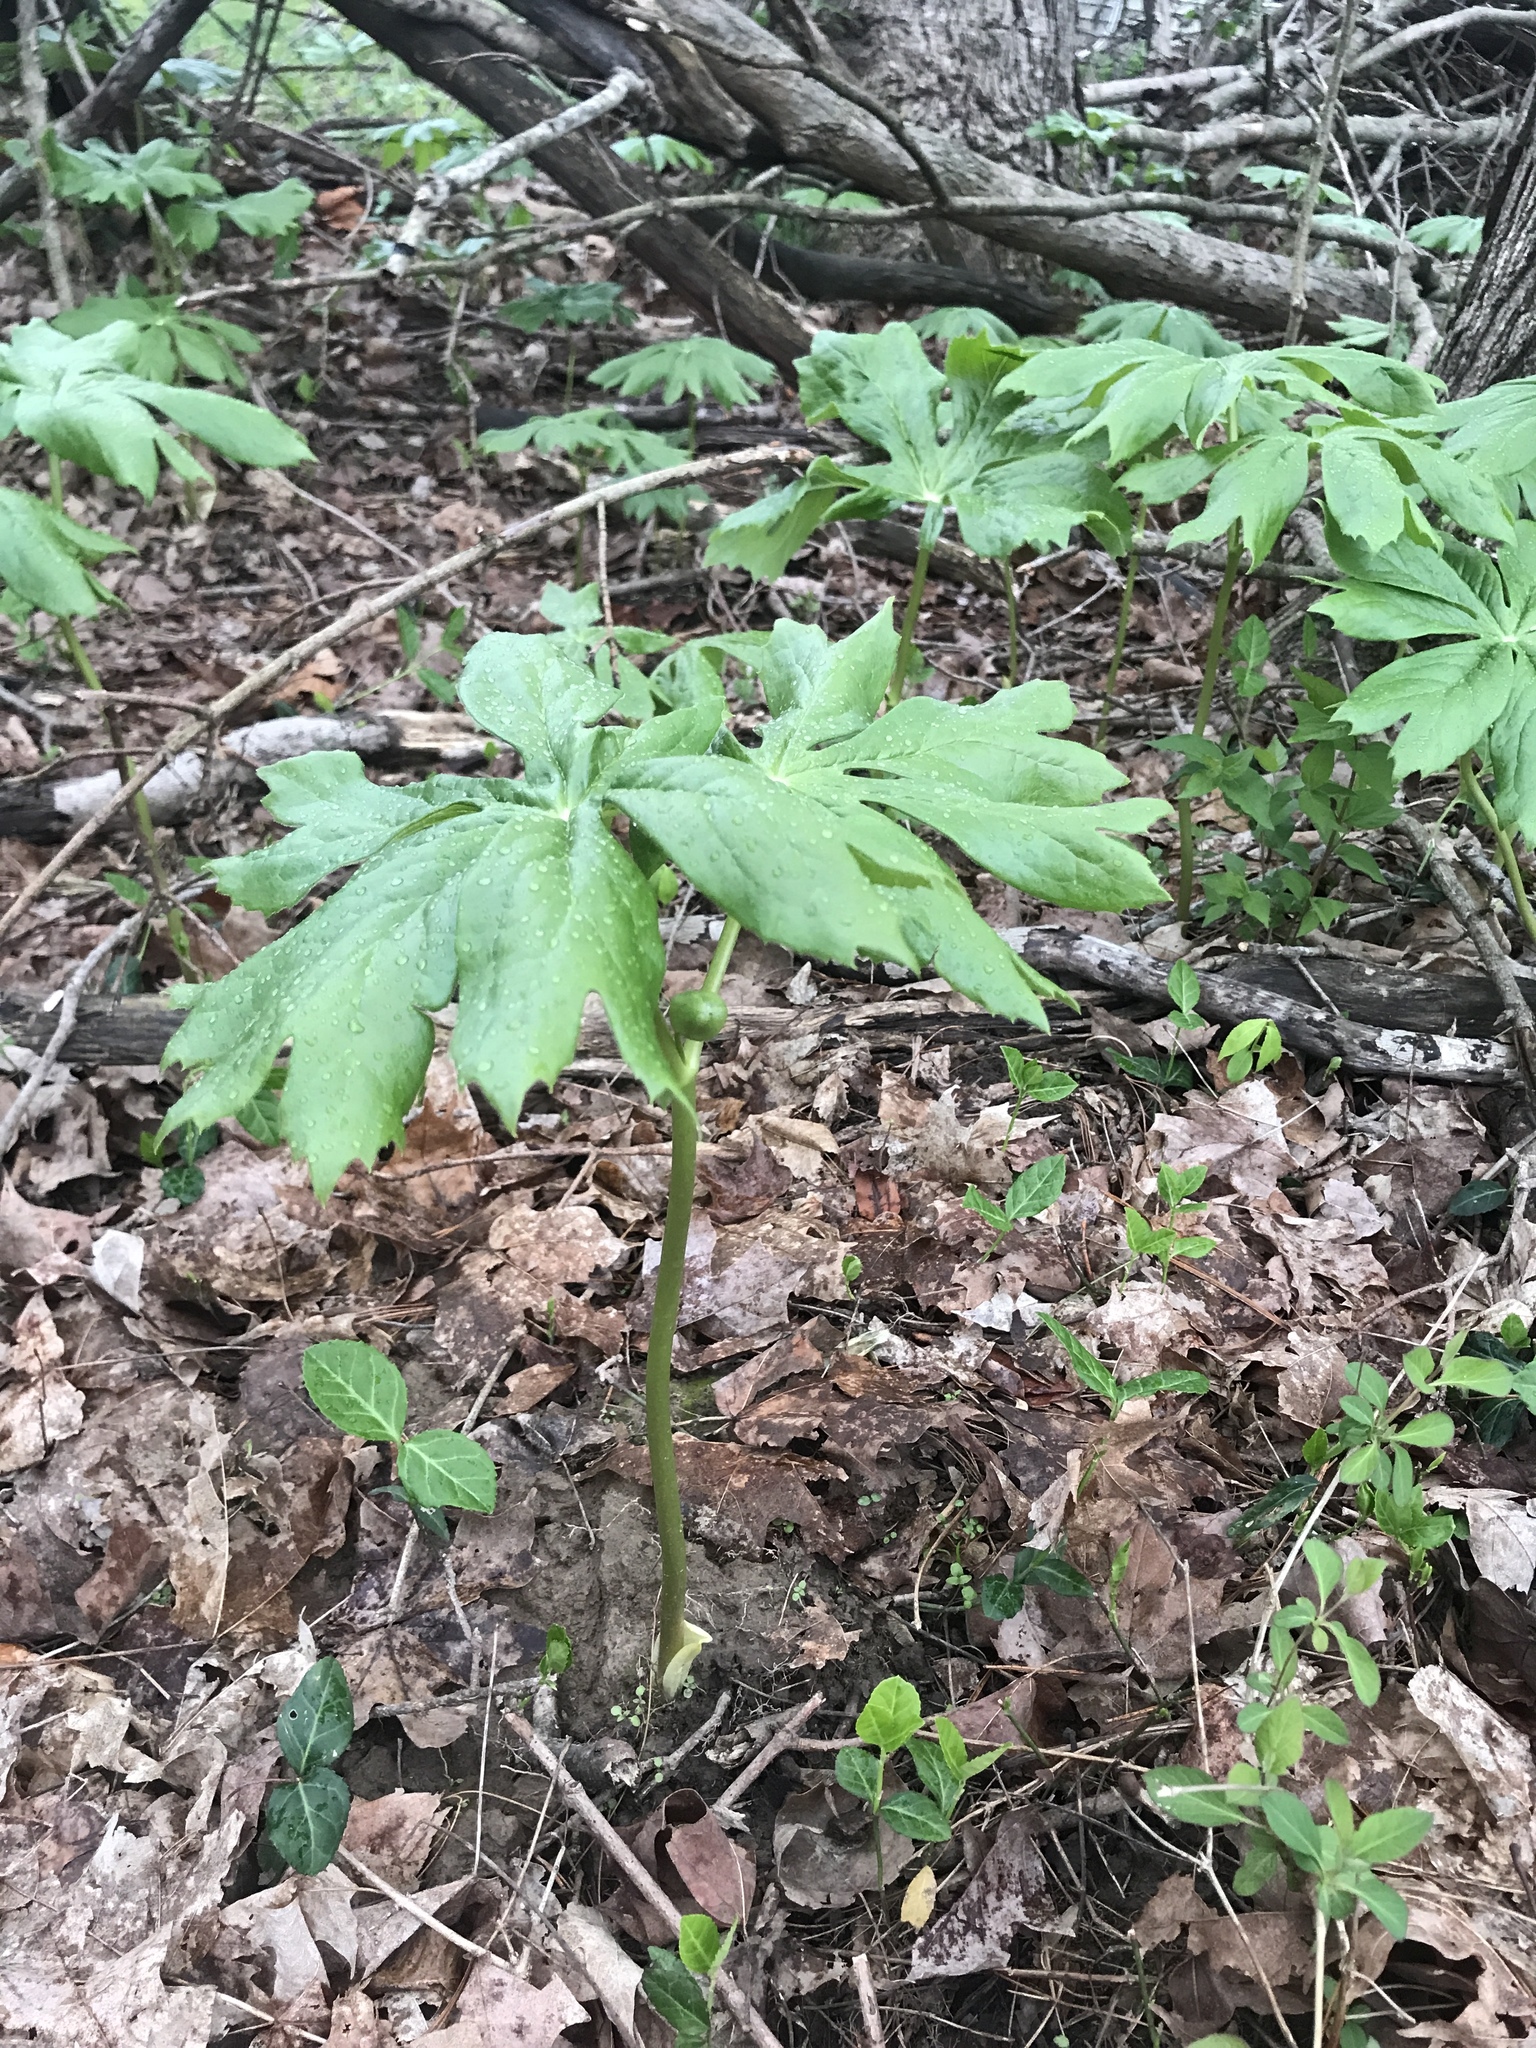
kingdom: Plantae
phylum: Tracheophyta
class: Magnoliopsida
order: Ranunculales
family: Berberidaceae
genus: Podophyllum
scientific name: Podophyllum peltatum
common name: Wild mandrake
